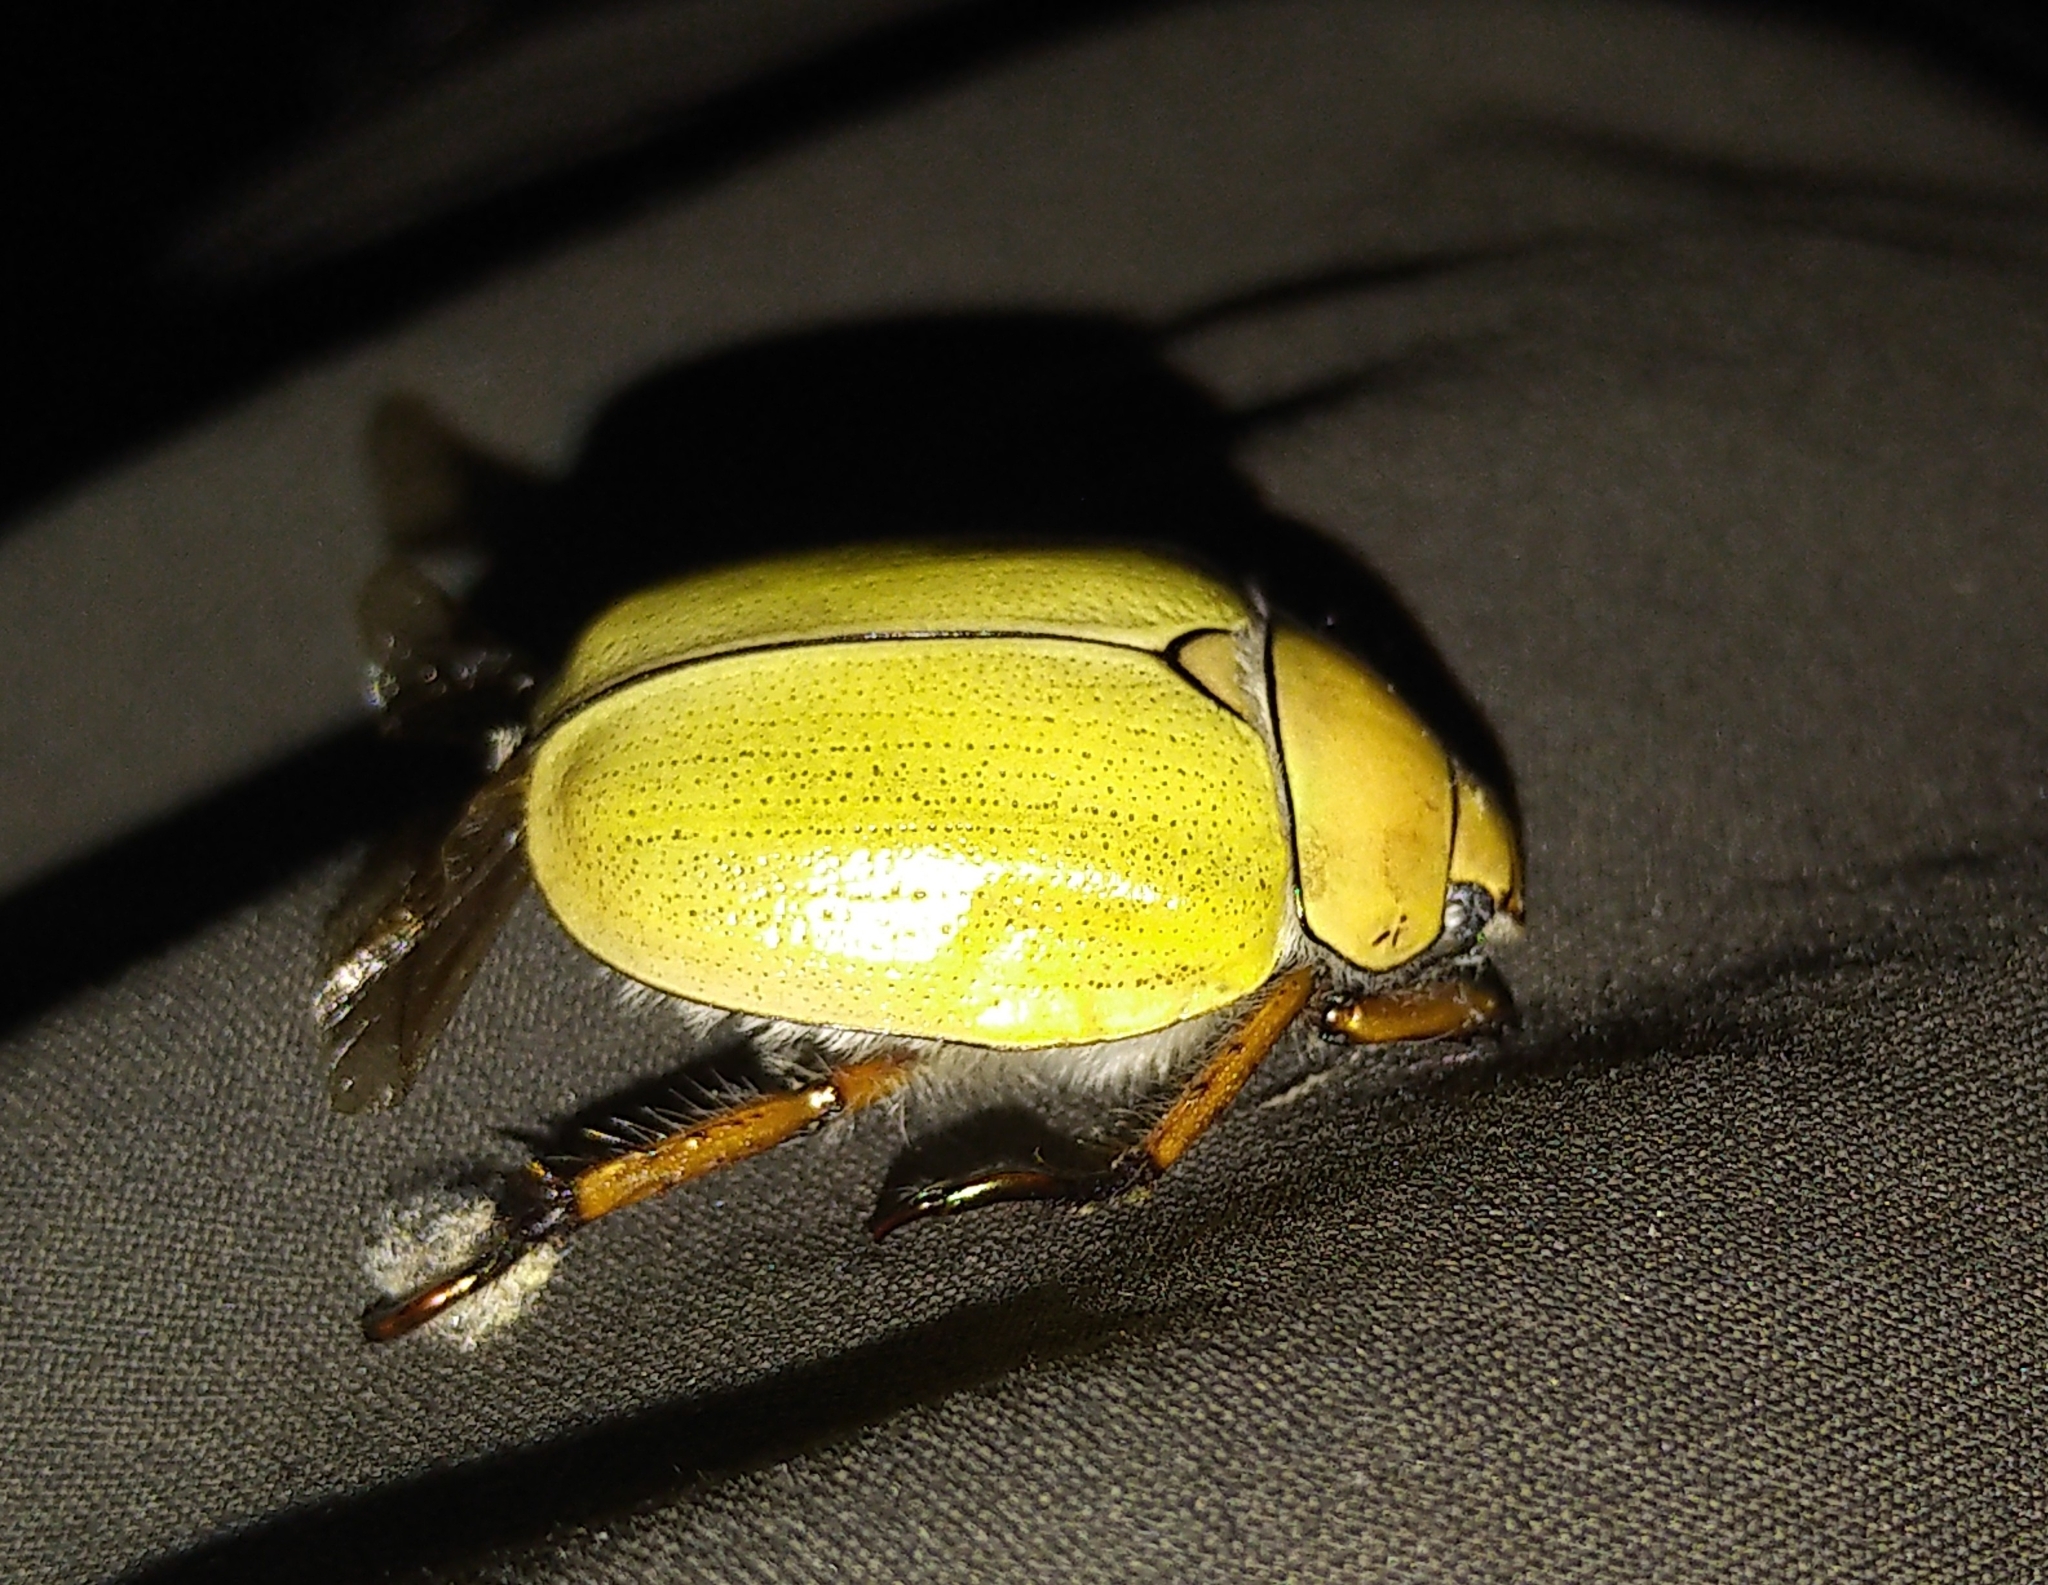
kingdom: Animalia
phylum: Arthropoda
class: Insecta
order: Coleoptera
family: Scarabaeidae
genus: Cotalpa
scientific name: Cotalpa lanigera
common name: Goldsmith beetle
